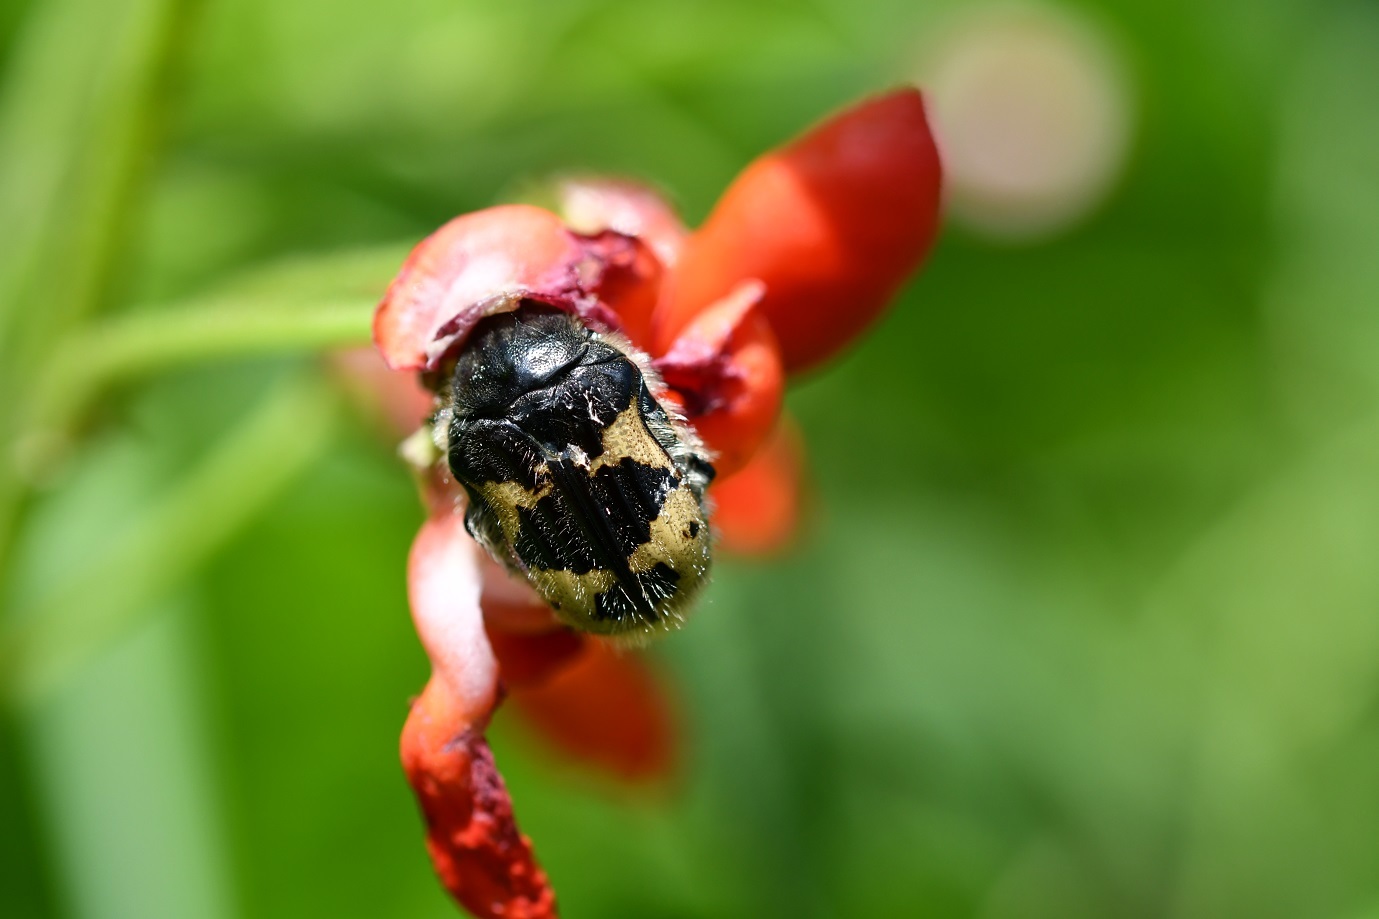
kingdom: Animalia
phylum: Arthropoda
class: Insecta
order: Coleoptera
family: Scarabaeidae
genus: Euphoria
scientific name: Euphoria basalis
